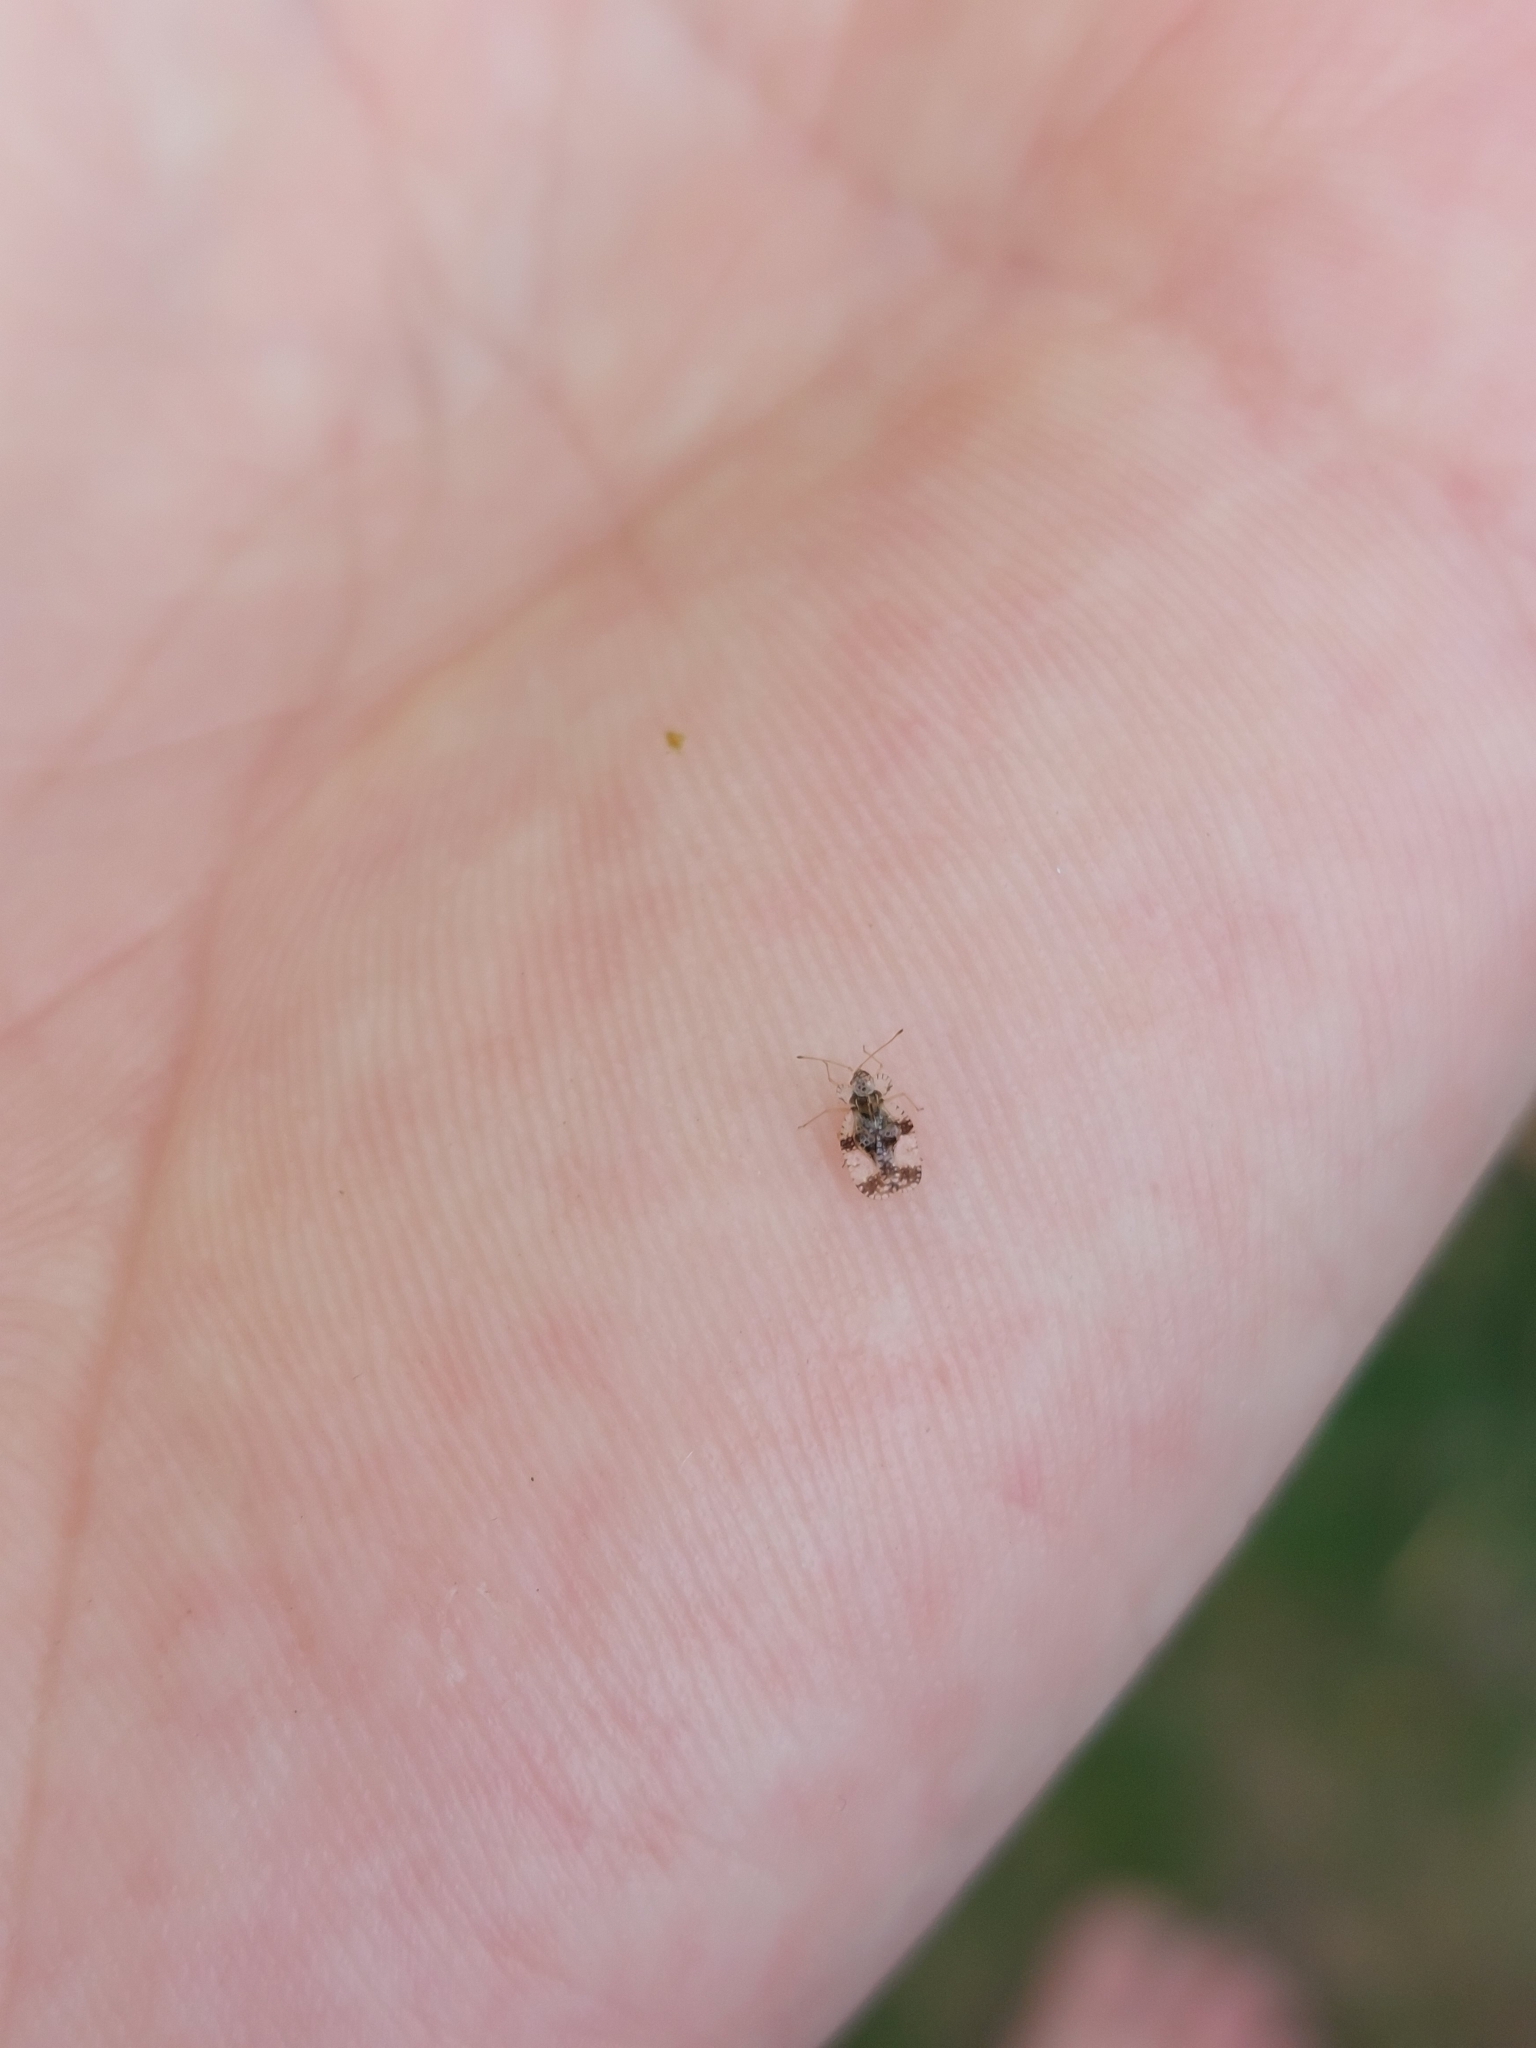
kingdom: Animalia
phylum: Arthropoda
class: Insecta
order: Hemiptera
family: Tingidae
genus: Stephanitis
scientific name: Stephanitis pyri
